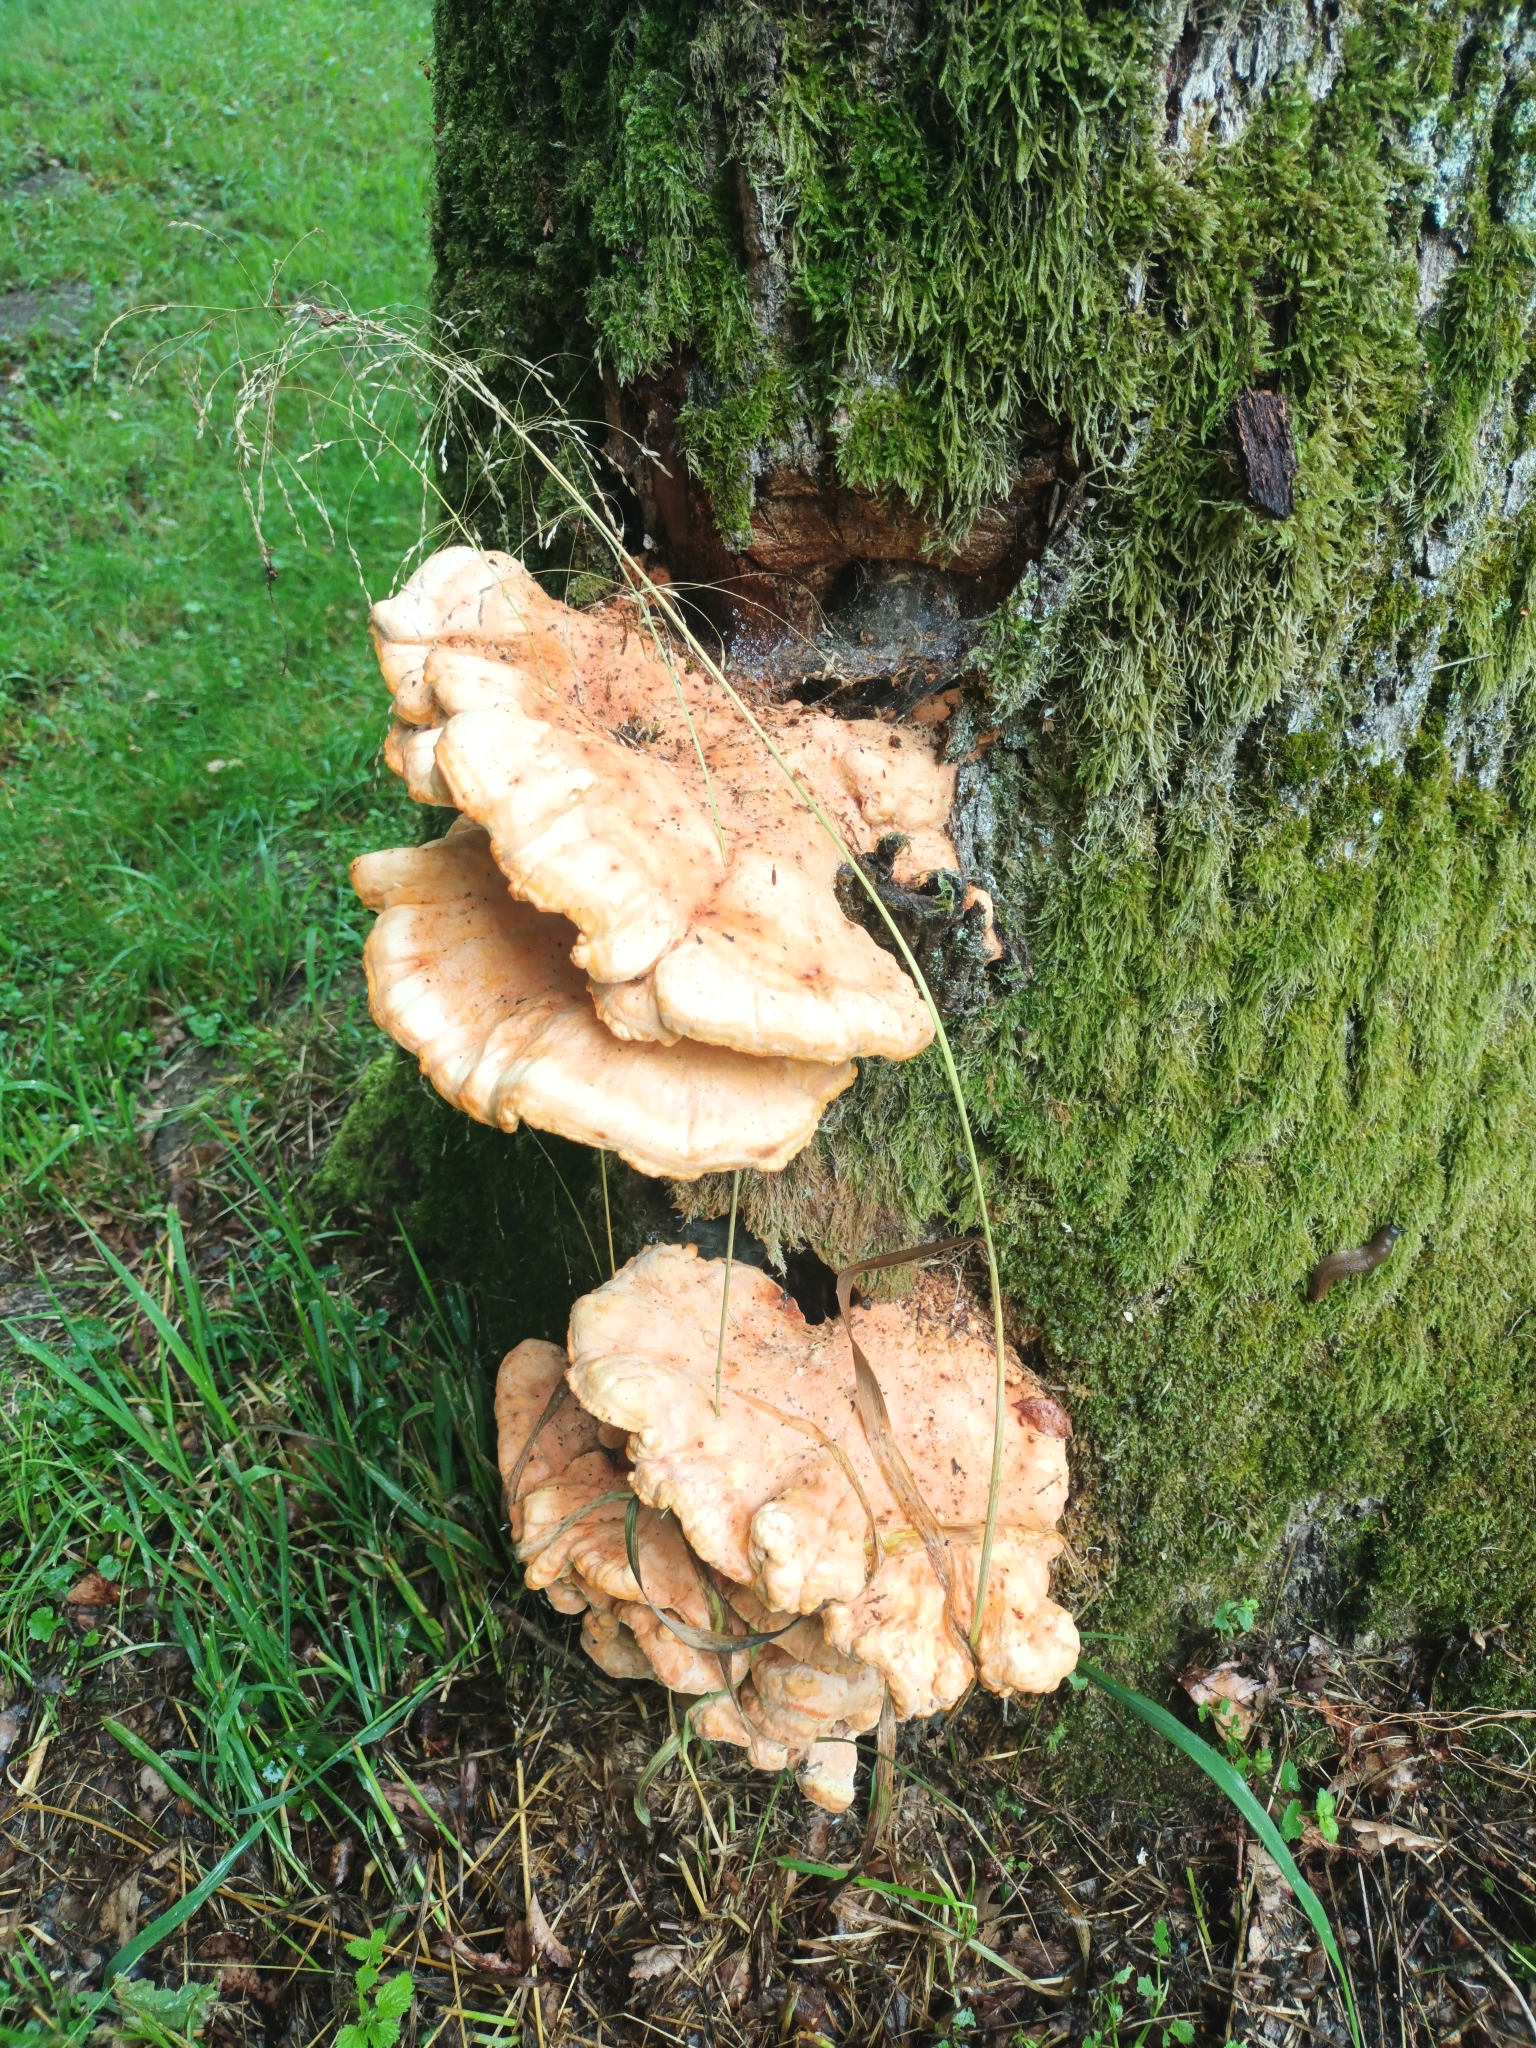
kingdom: Fungi
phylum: Basidiomycota
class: Agaricomycetes
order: Polyporales
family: Laetiporaceae
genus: Laetiporus
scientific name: Laetiporus sulphureus
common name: Chicken of the woods
